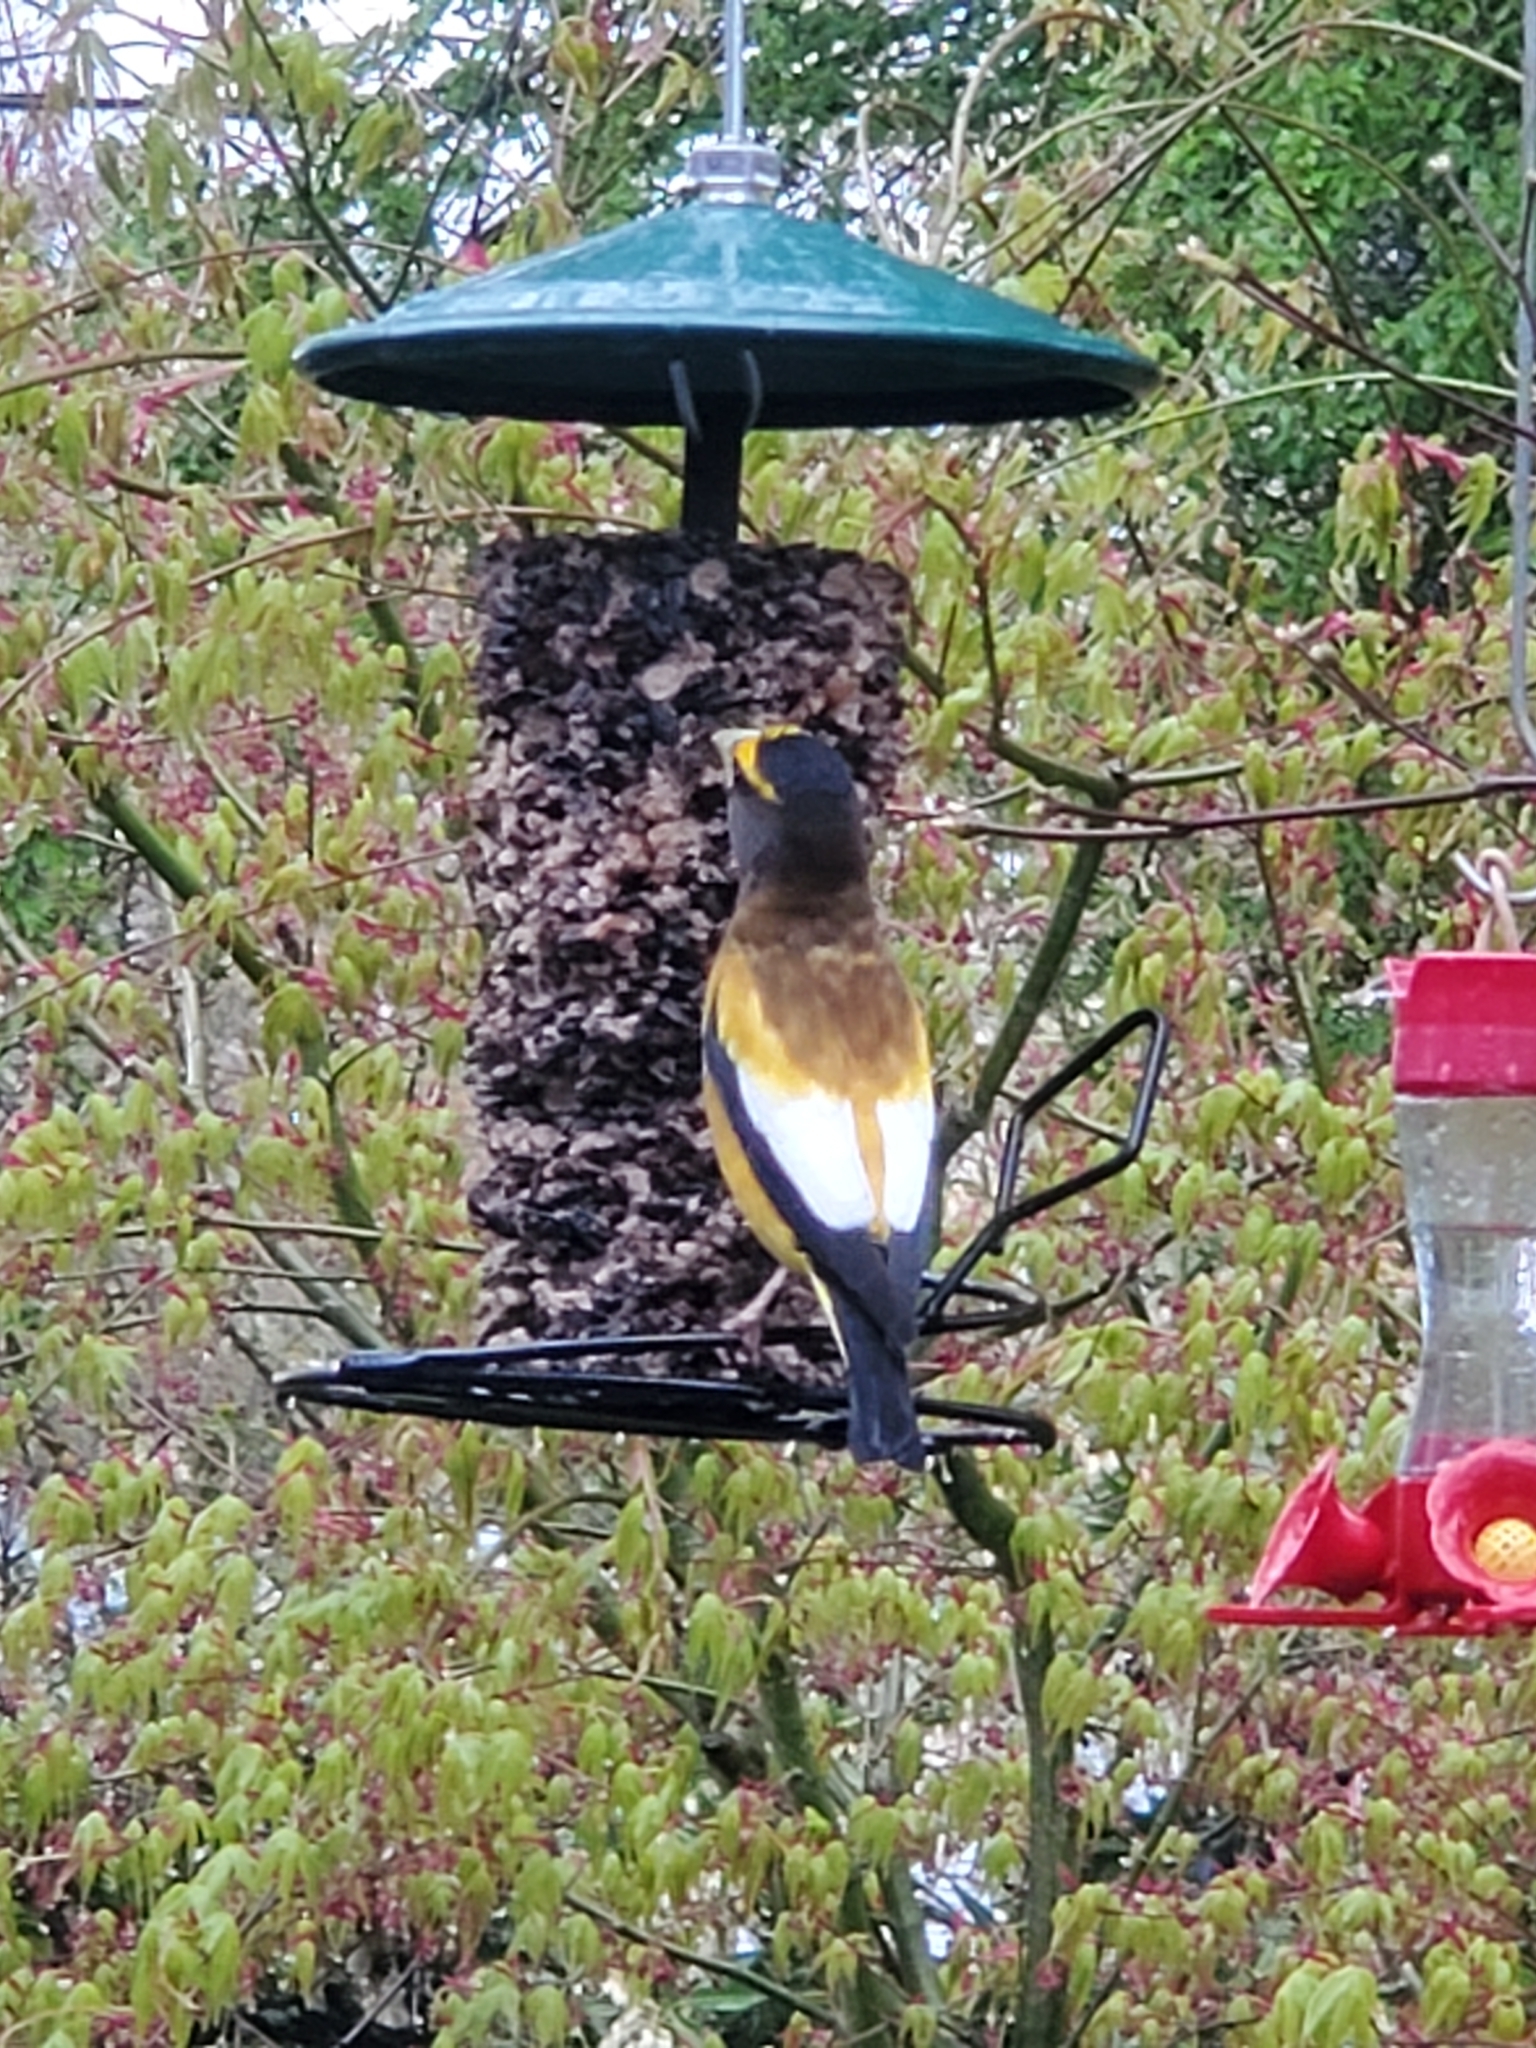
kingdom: Animalia
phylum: Chordata
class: Aves
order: Passeriformes
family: Fringillidae
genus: Hesperiphona
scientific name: Hesperiphona vespertina
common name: Evening grosbeak
